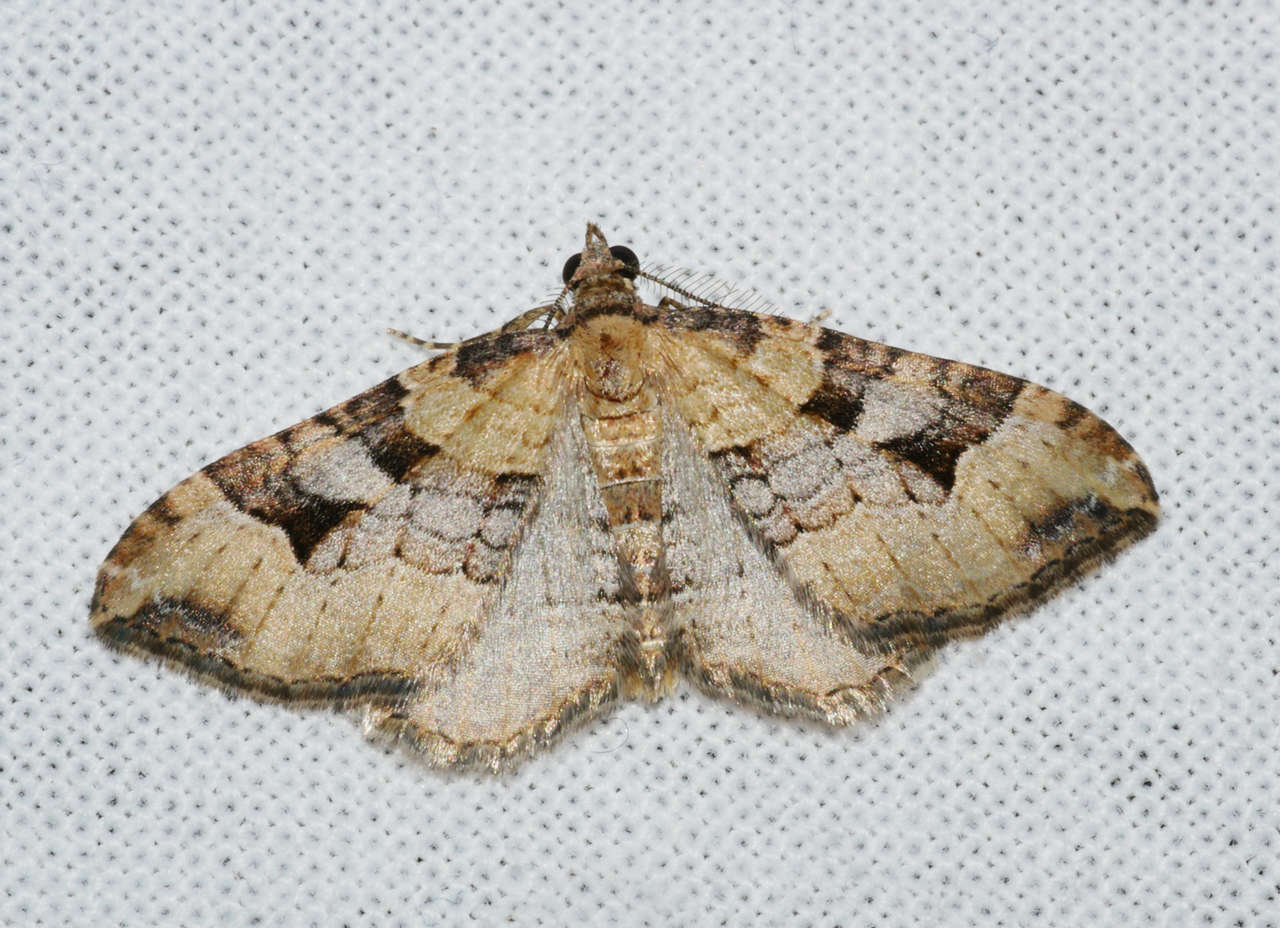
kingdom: Animalia
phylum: Arthropoda
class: Insecta
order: Lepidoptera
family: Geometridae
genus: Epyaxa
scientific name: Epyaxa subidaria
